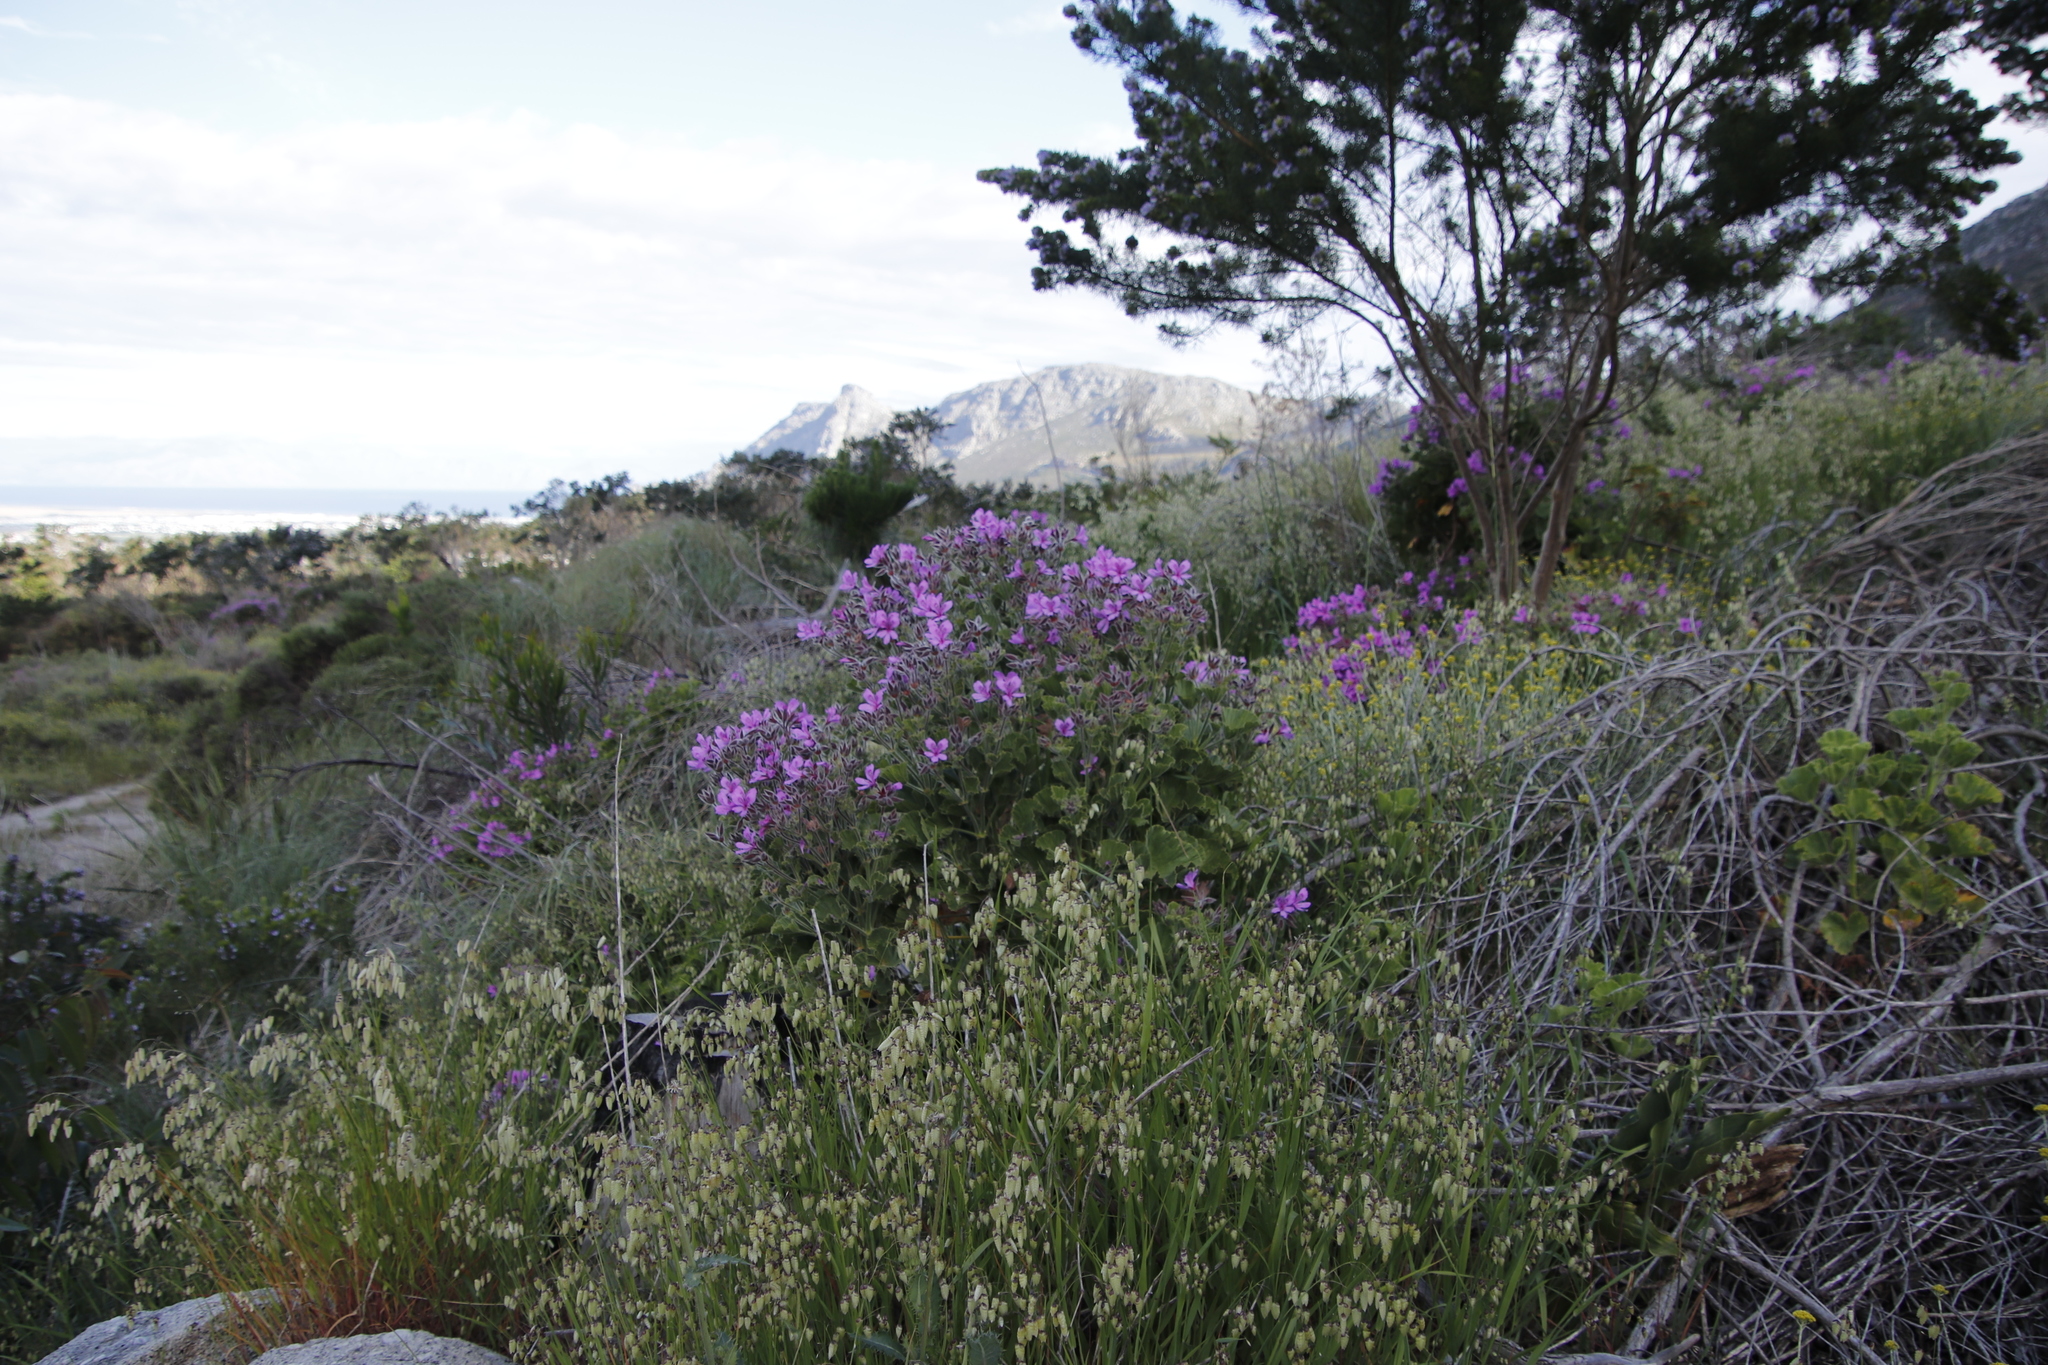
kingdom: Plantae
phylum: Tracheophyta
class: Magnoliopsida
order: Geraniales
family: Geraniaceae
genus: Pelargonium
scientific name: Pelargonium cucullatum
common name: Tree pelargonium
